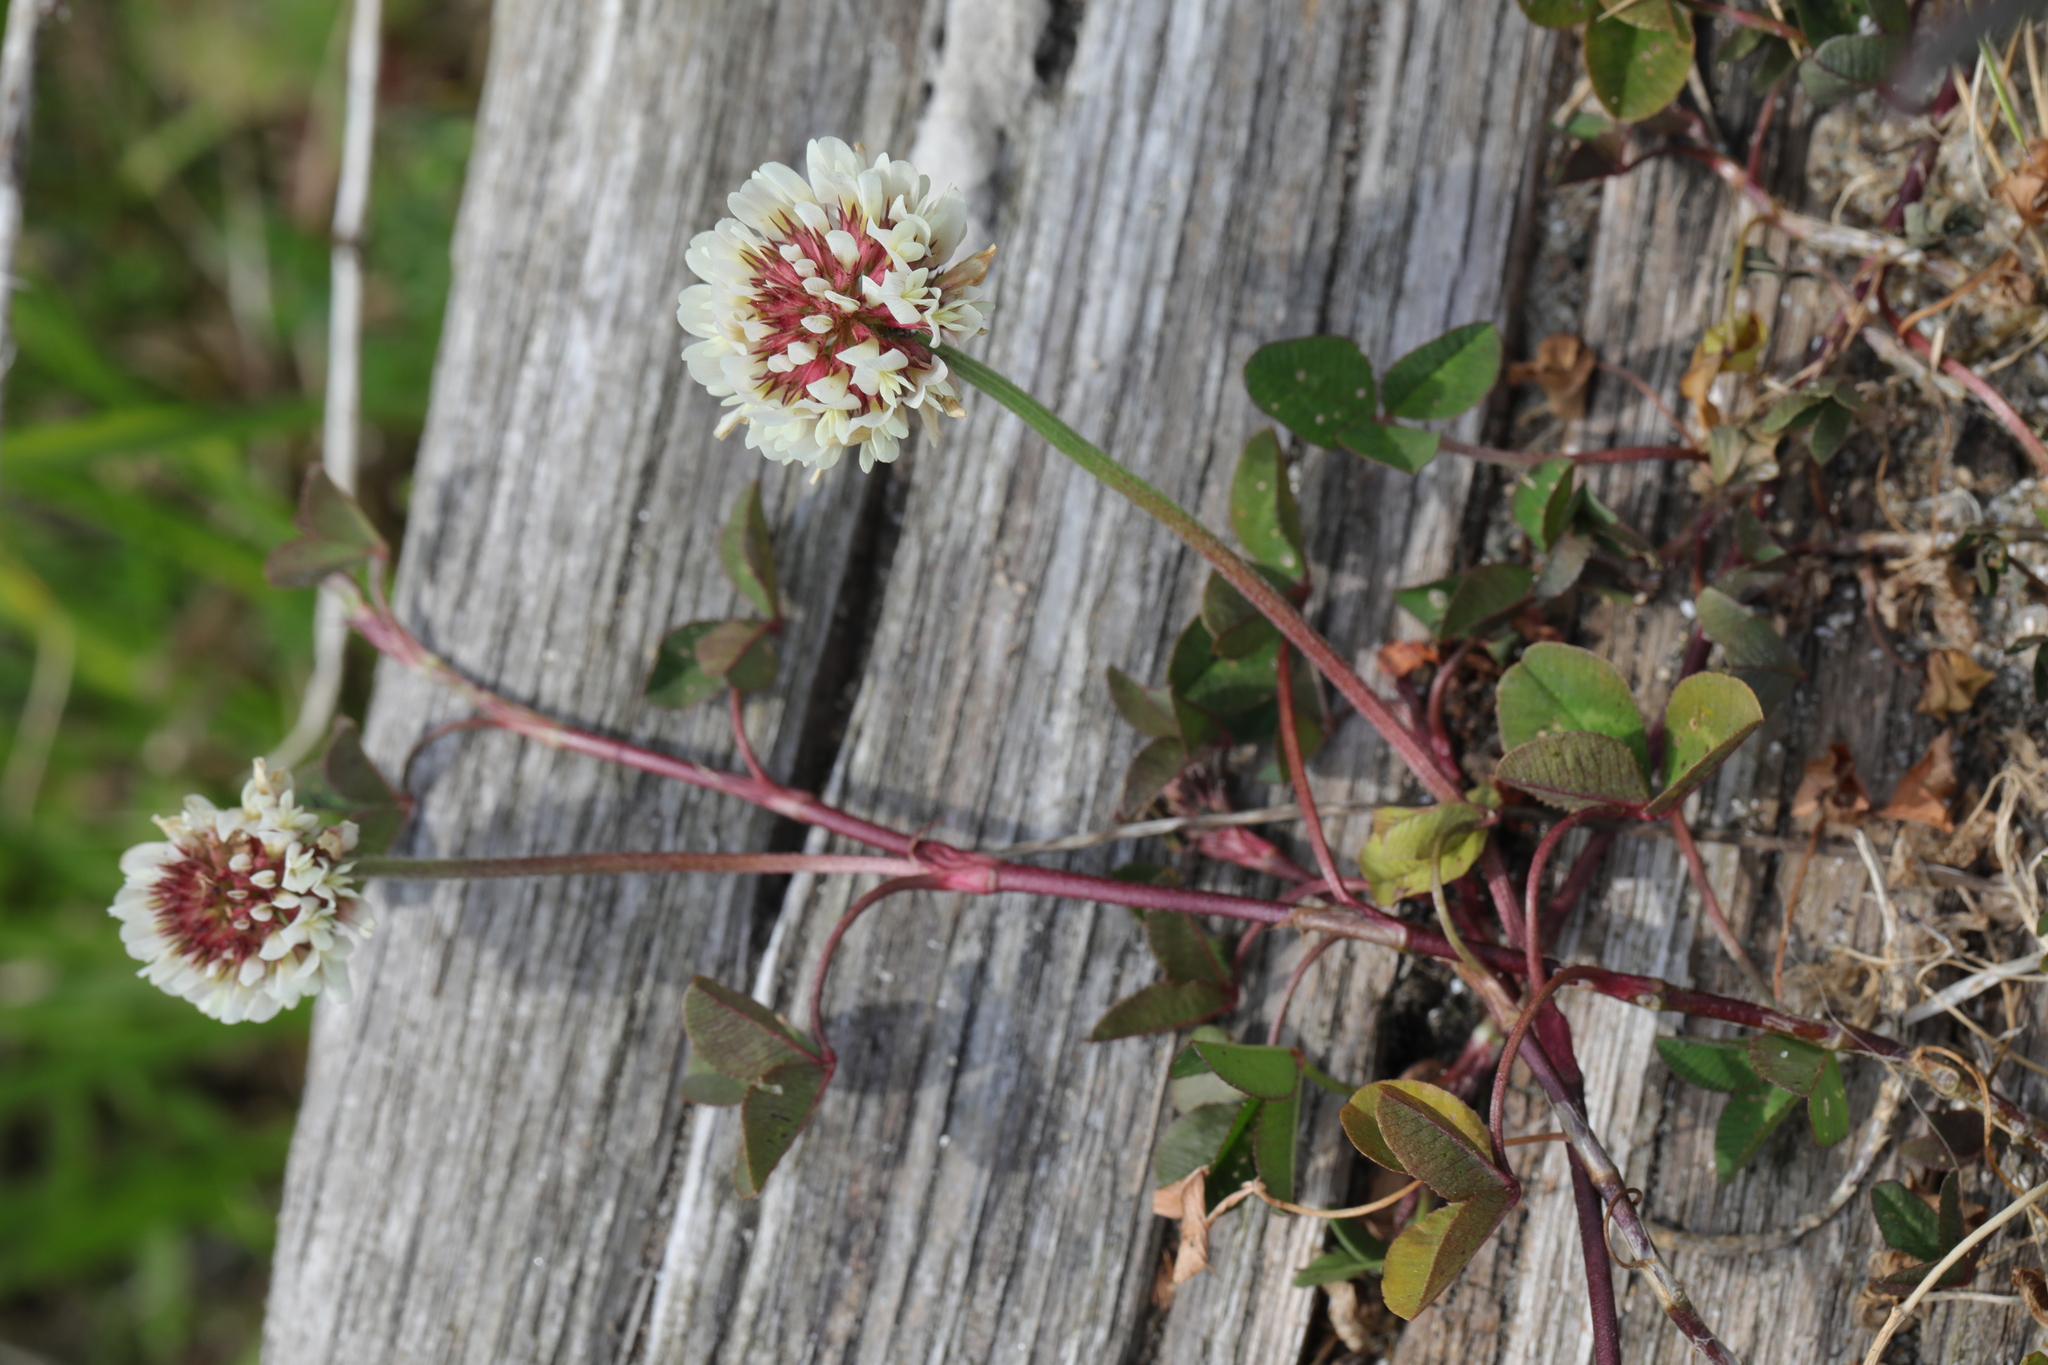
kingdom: Plantae
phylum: Tracheophyta
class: Magnoliopsida
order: Fabales
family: Fabaceae
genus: Trifolium
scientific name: Trifolium repens
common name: White clover
